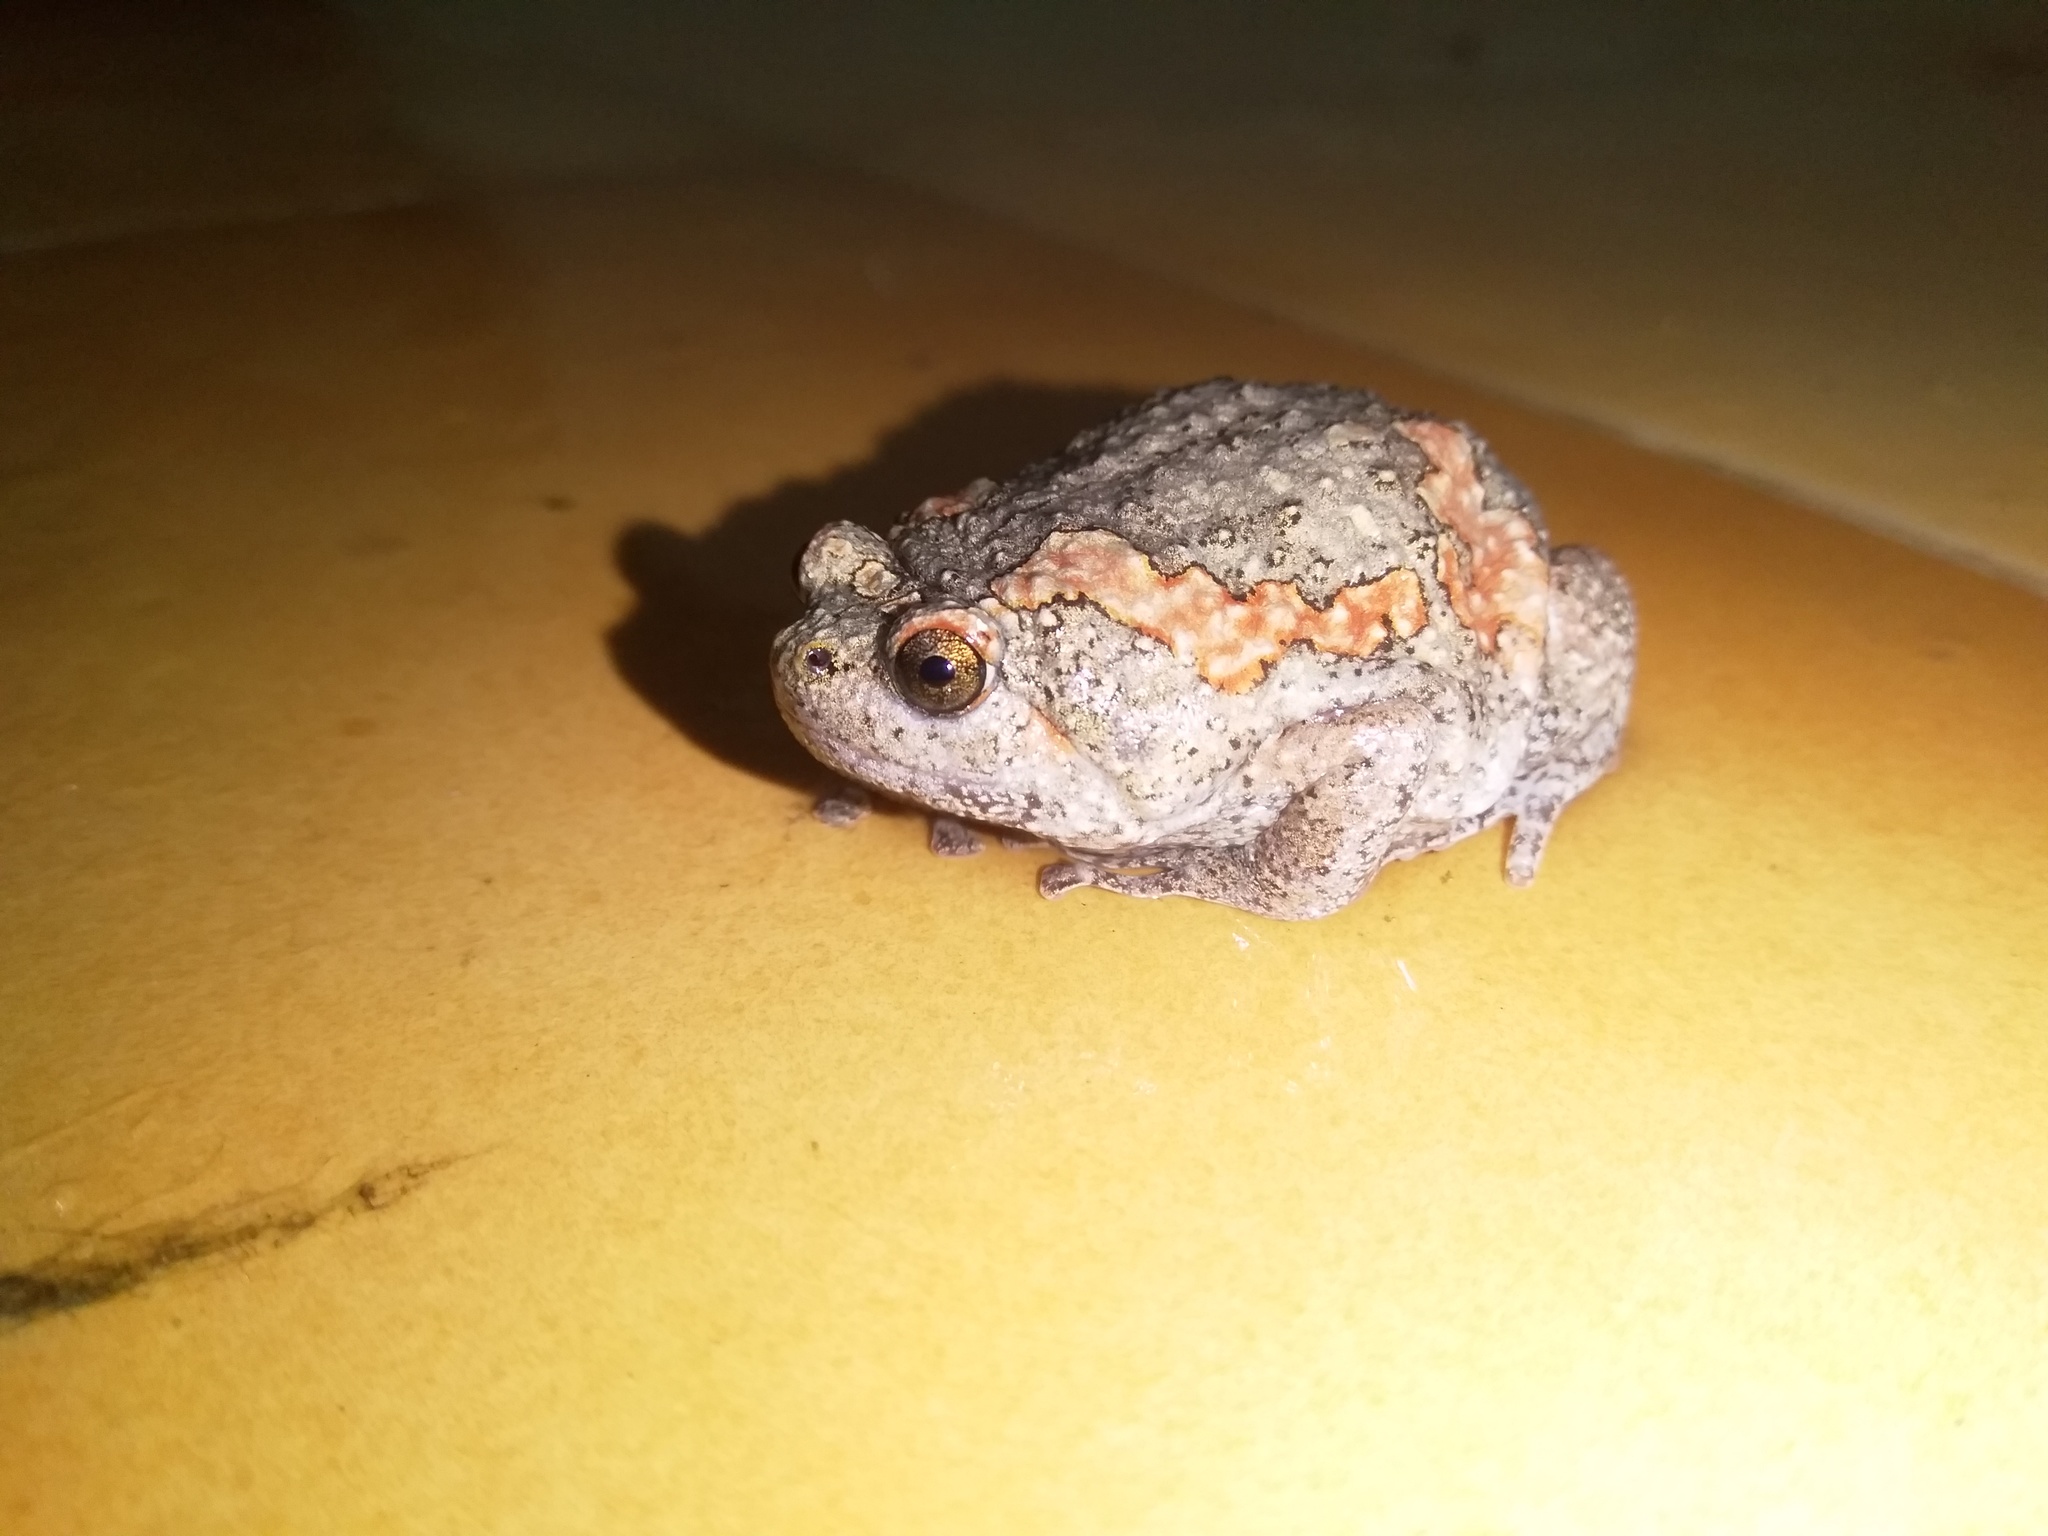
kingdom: Animalia
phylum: Chordata
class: Amphibia
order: Anura
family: Microhylidae
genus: Uperodon
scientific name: Uperodon taprobanicus
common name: Ceylon kaloula
